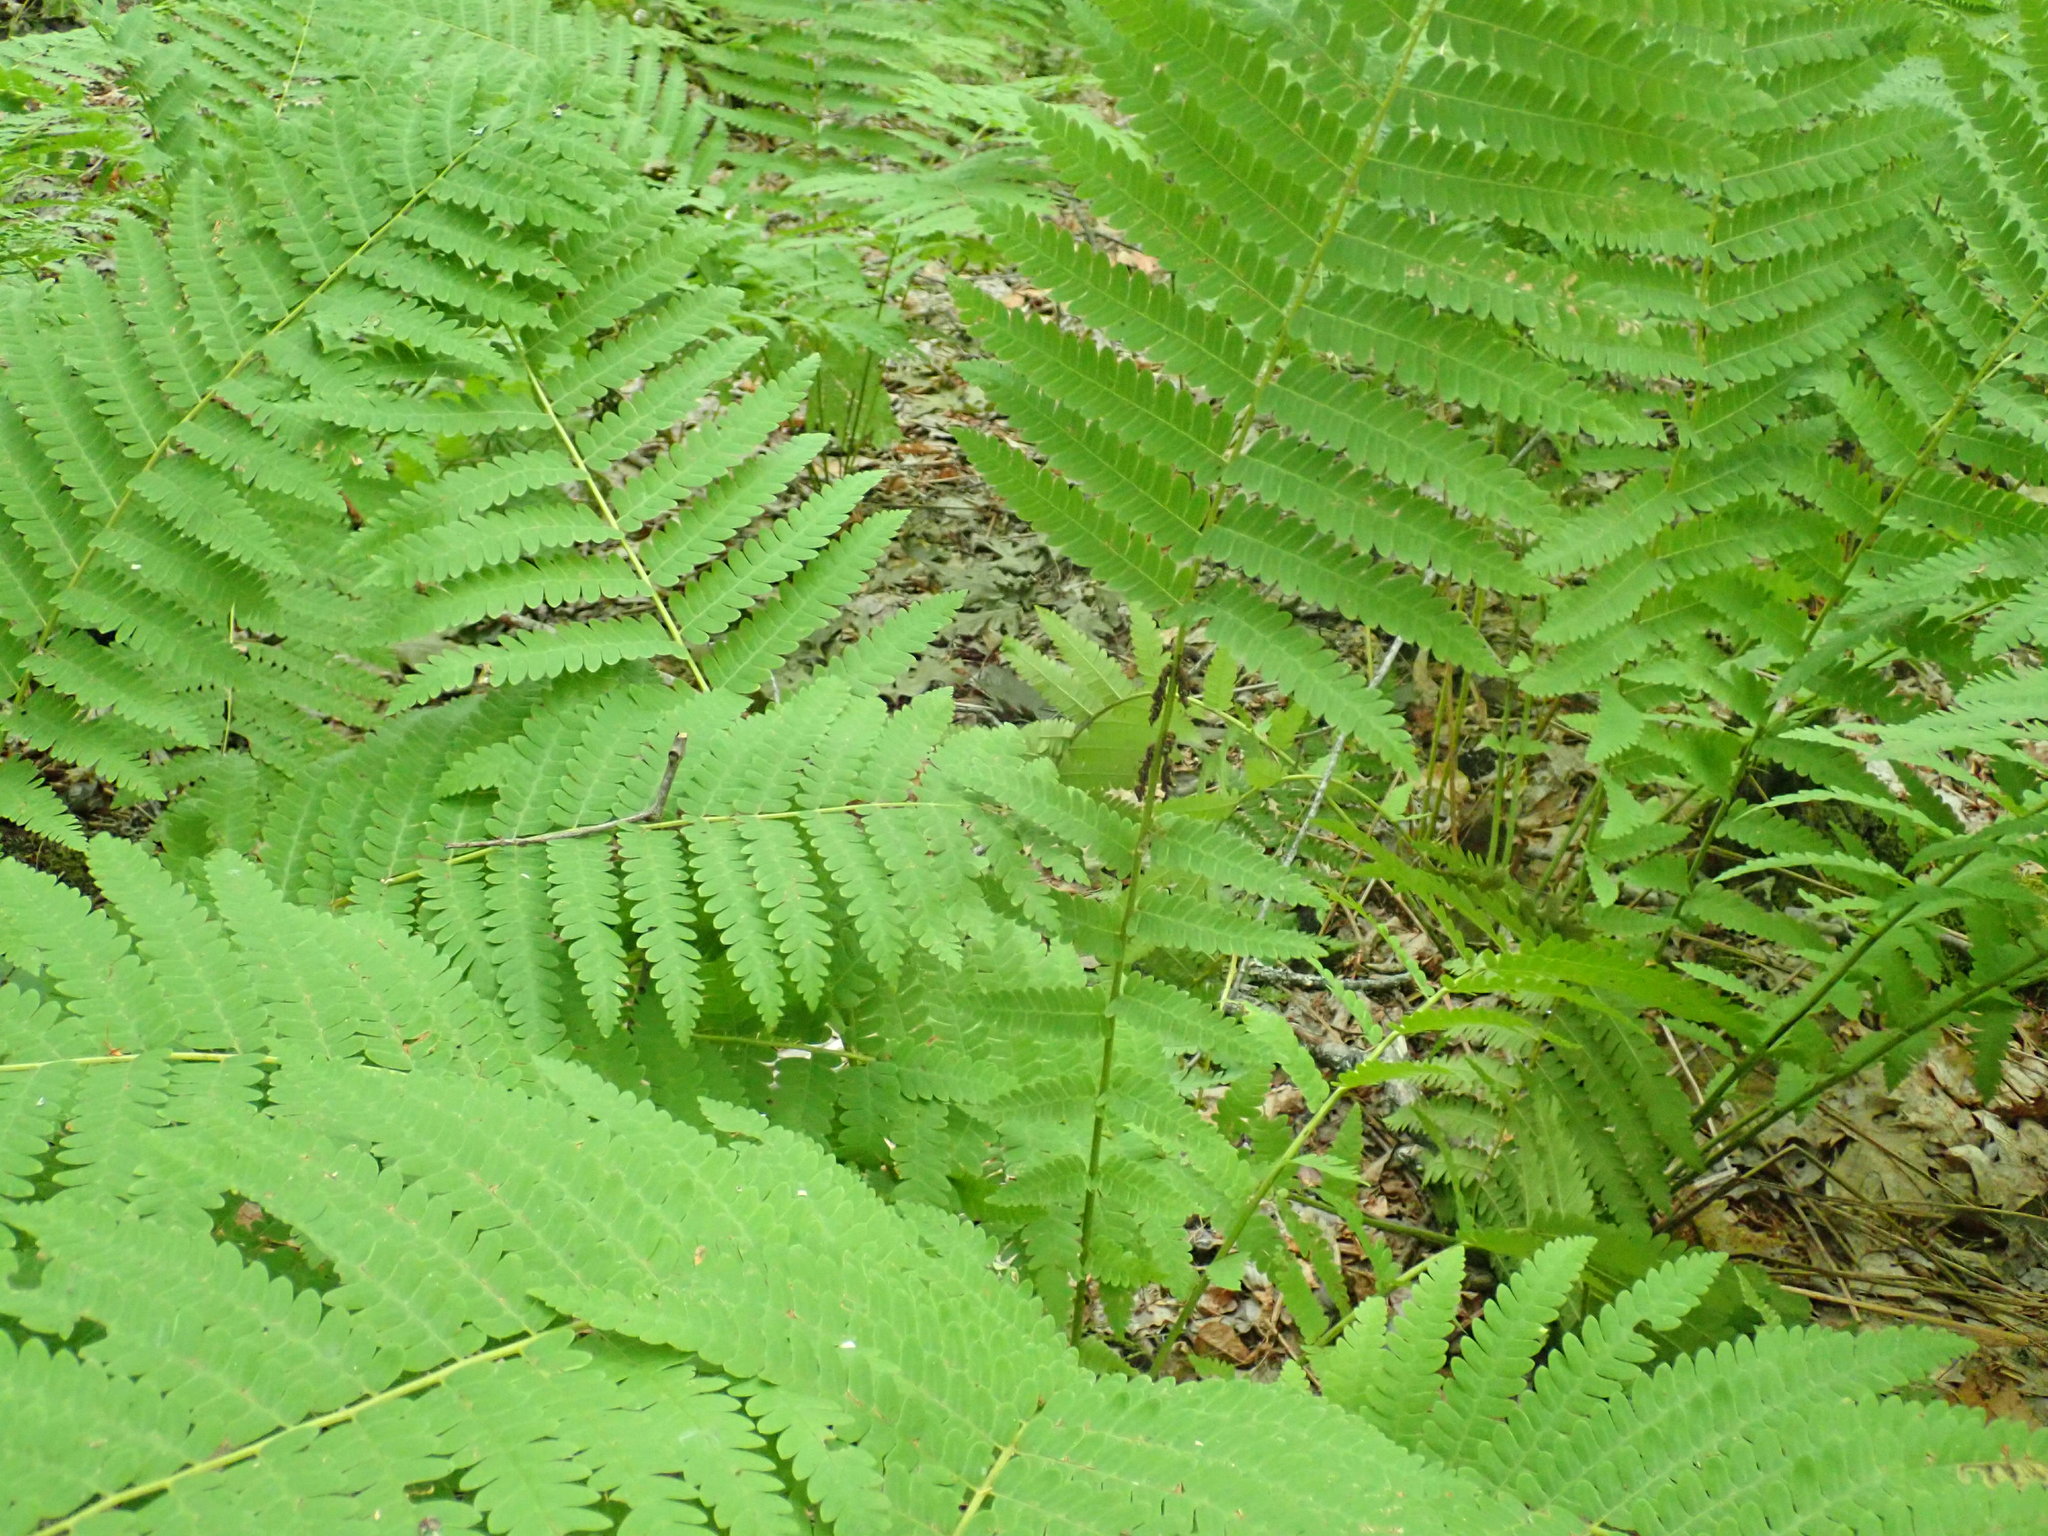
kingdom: Plantae
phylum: Tracheophyta
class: Polypodiopsida
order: Osmundales
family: Osmundaceae
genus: Claytosmunda
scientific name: Claytosmunda claytoniana
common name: Clayton's fern
